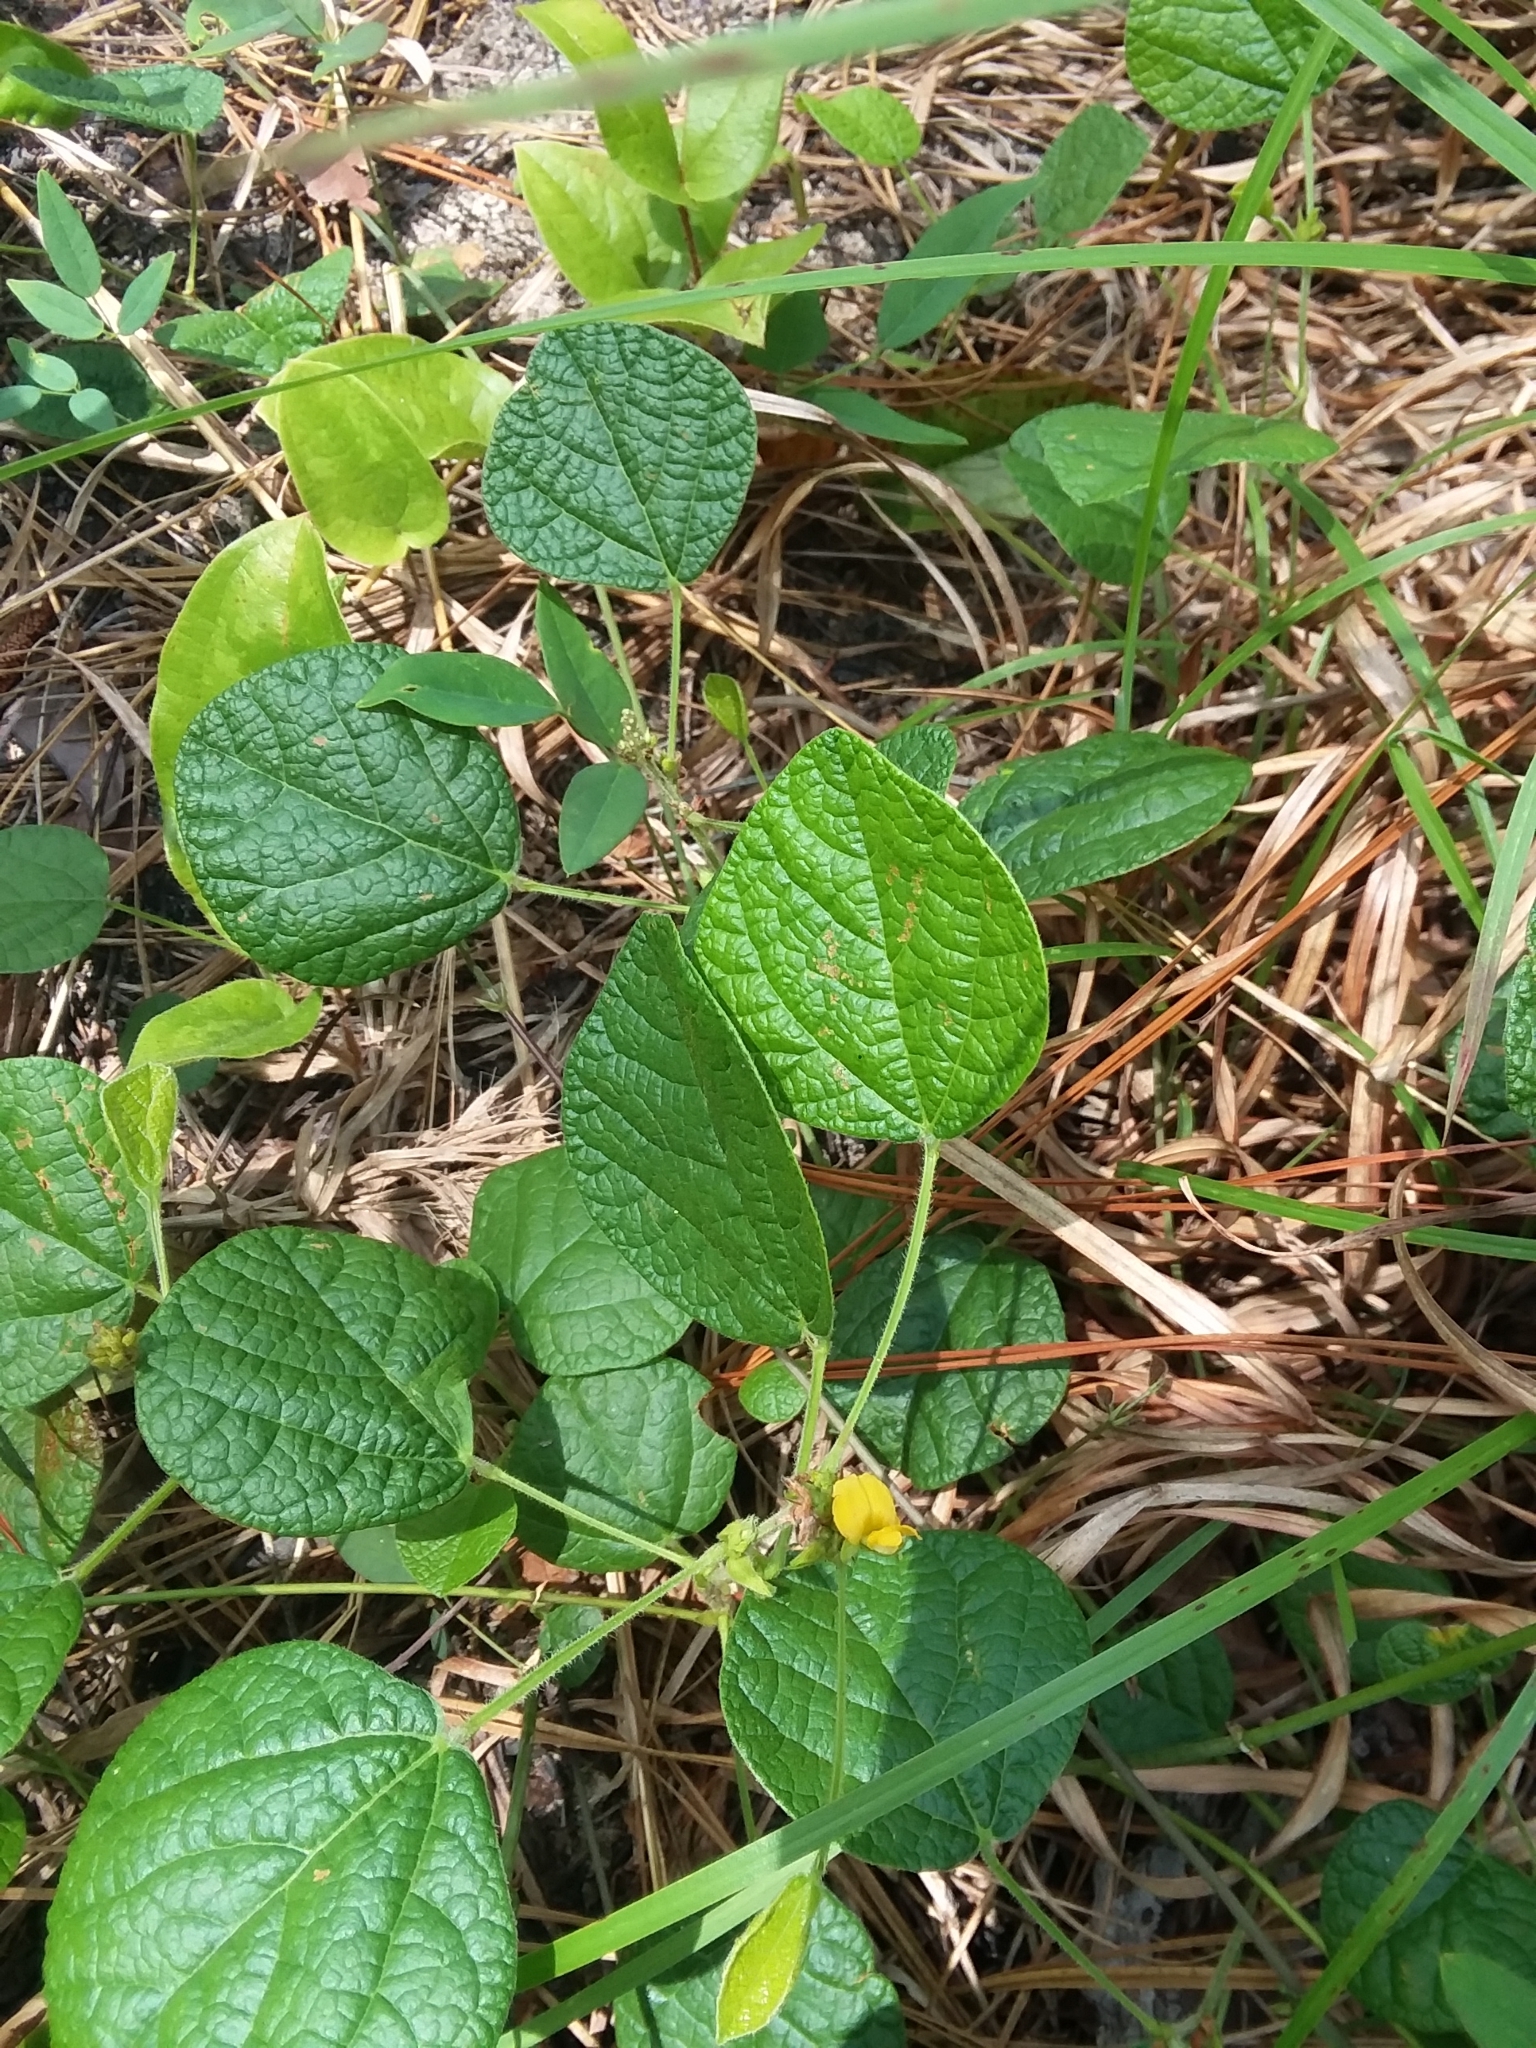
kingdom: Plantae
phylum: Tracheophyta
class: Magnoliopsida
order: Fabales
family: Fabaceae
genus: Rhynchosia
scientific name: Rhynchosia reniformis
